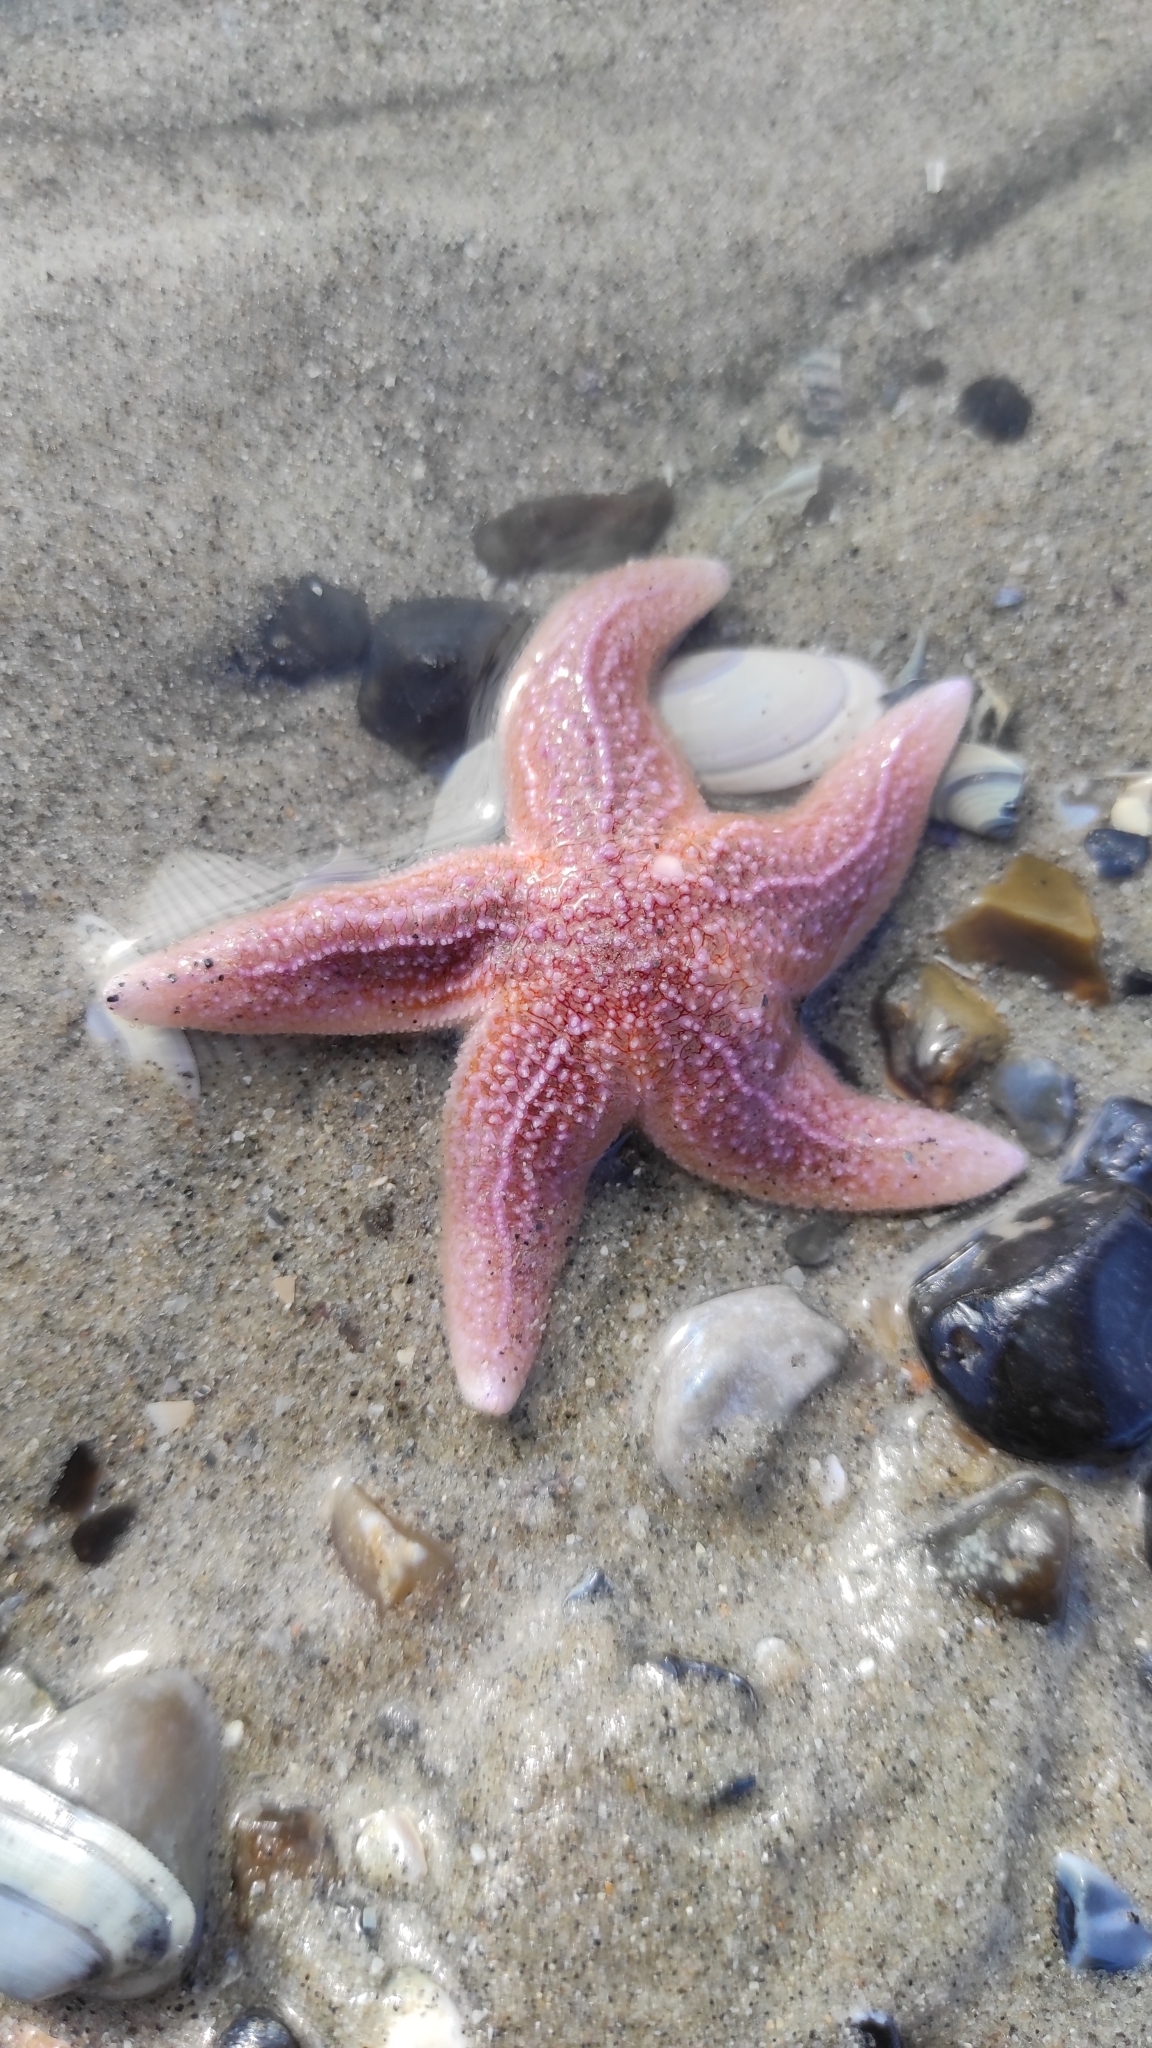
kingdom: Animalia
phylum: Echinodermata
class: Asteroidea
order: Forcipulatida
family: Asteriidae
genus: Asterias
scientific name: Asterias rubens
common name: Common starfish
